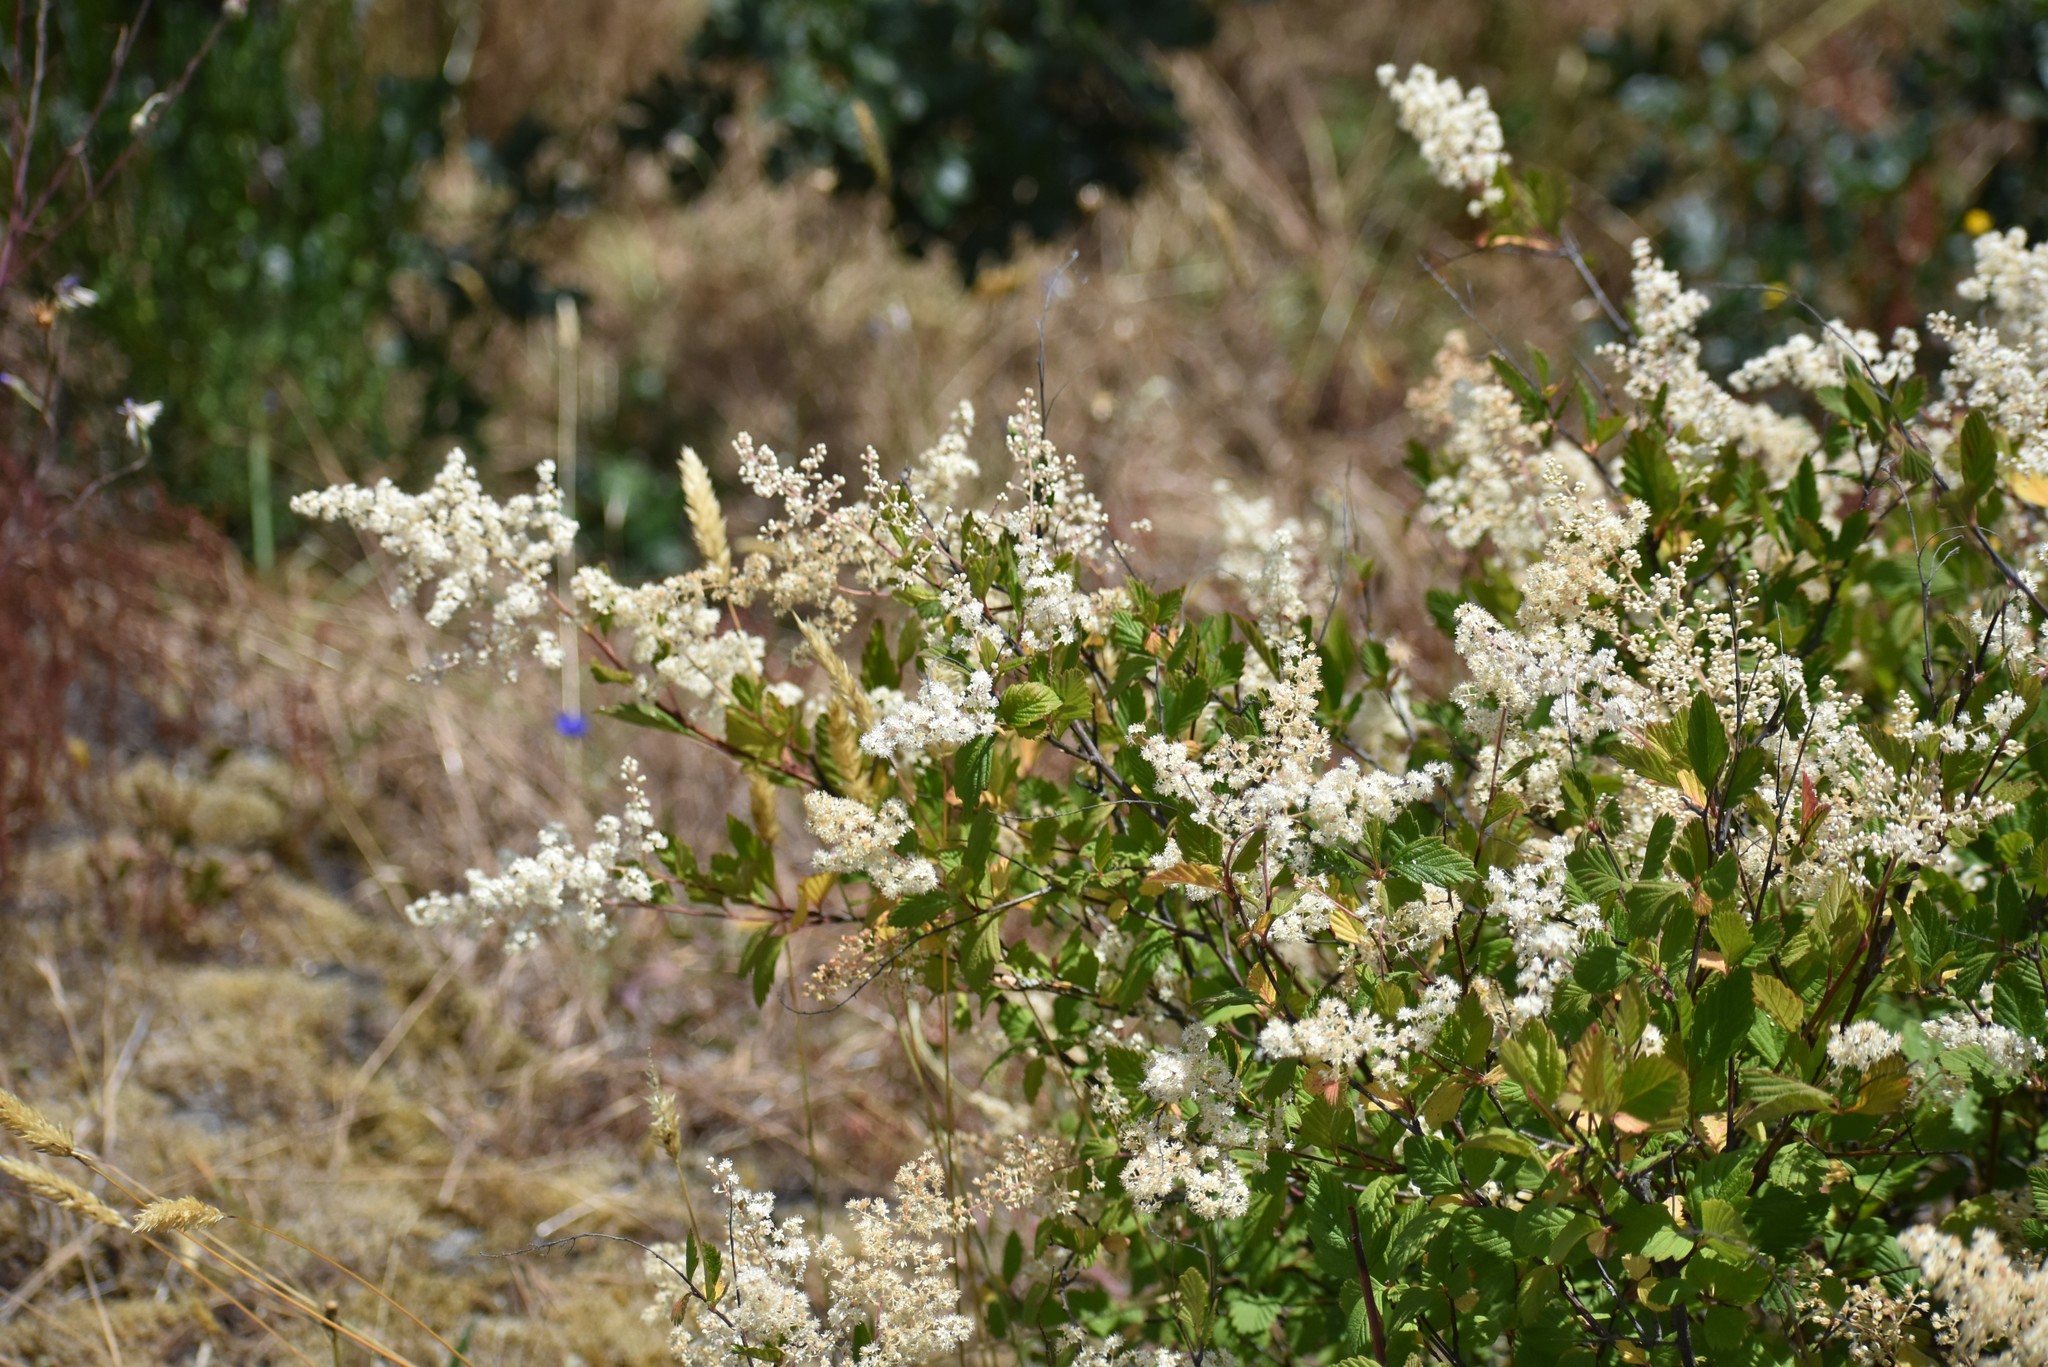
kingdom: Plantae
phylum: Tracheophyta
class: Magnoliopsida
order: Rosales
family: Rosaceae
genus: Holodiscus
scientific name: Holodiscus discolor
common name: Oceanspray
